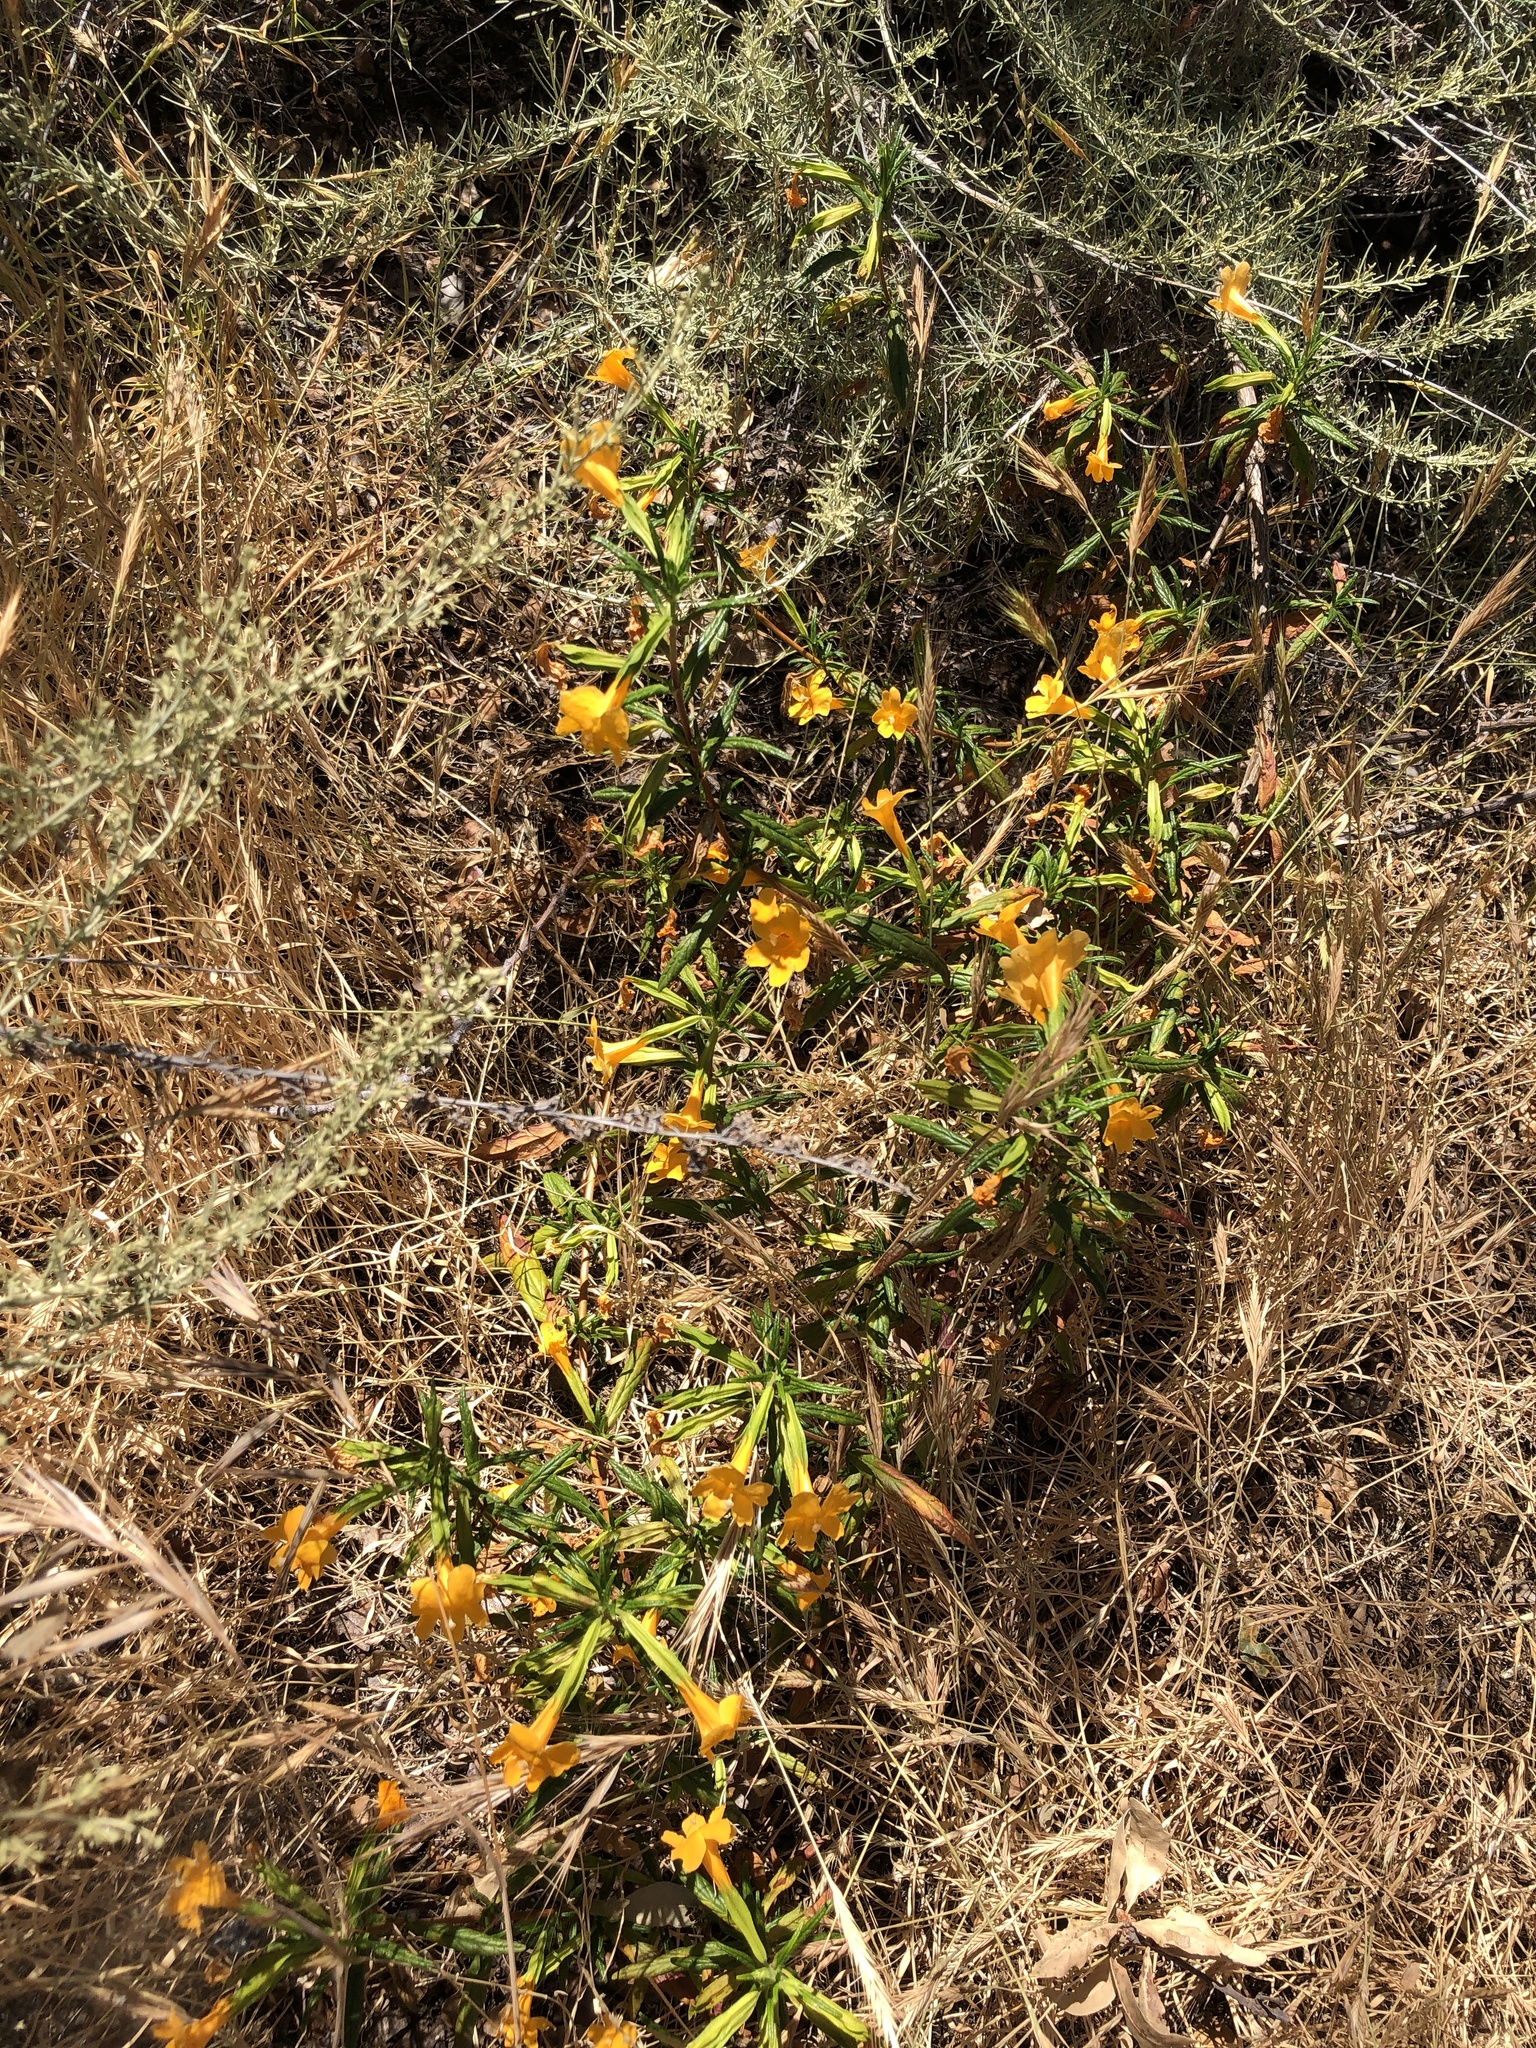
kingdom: Plantae
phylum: Tracheophyta
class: Magnoliopsida
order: Lamiales
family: Phrymaceae
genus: Diplacus
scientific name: Diplacus aurantiacus
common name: Bush monkey-flower
